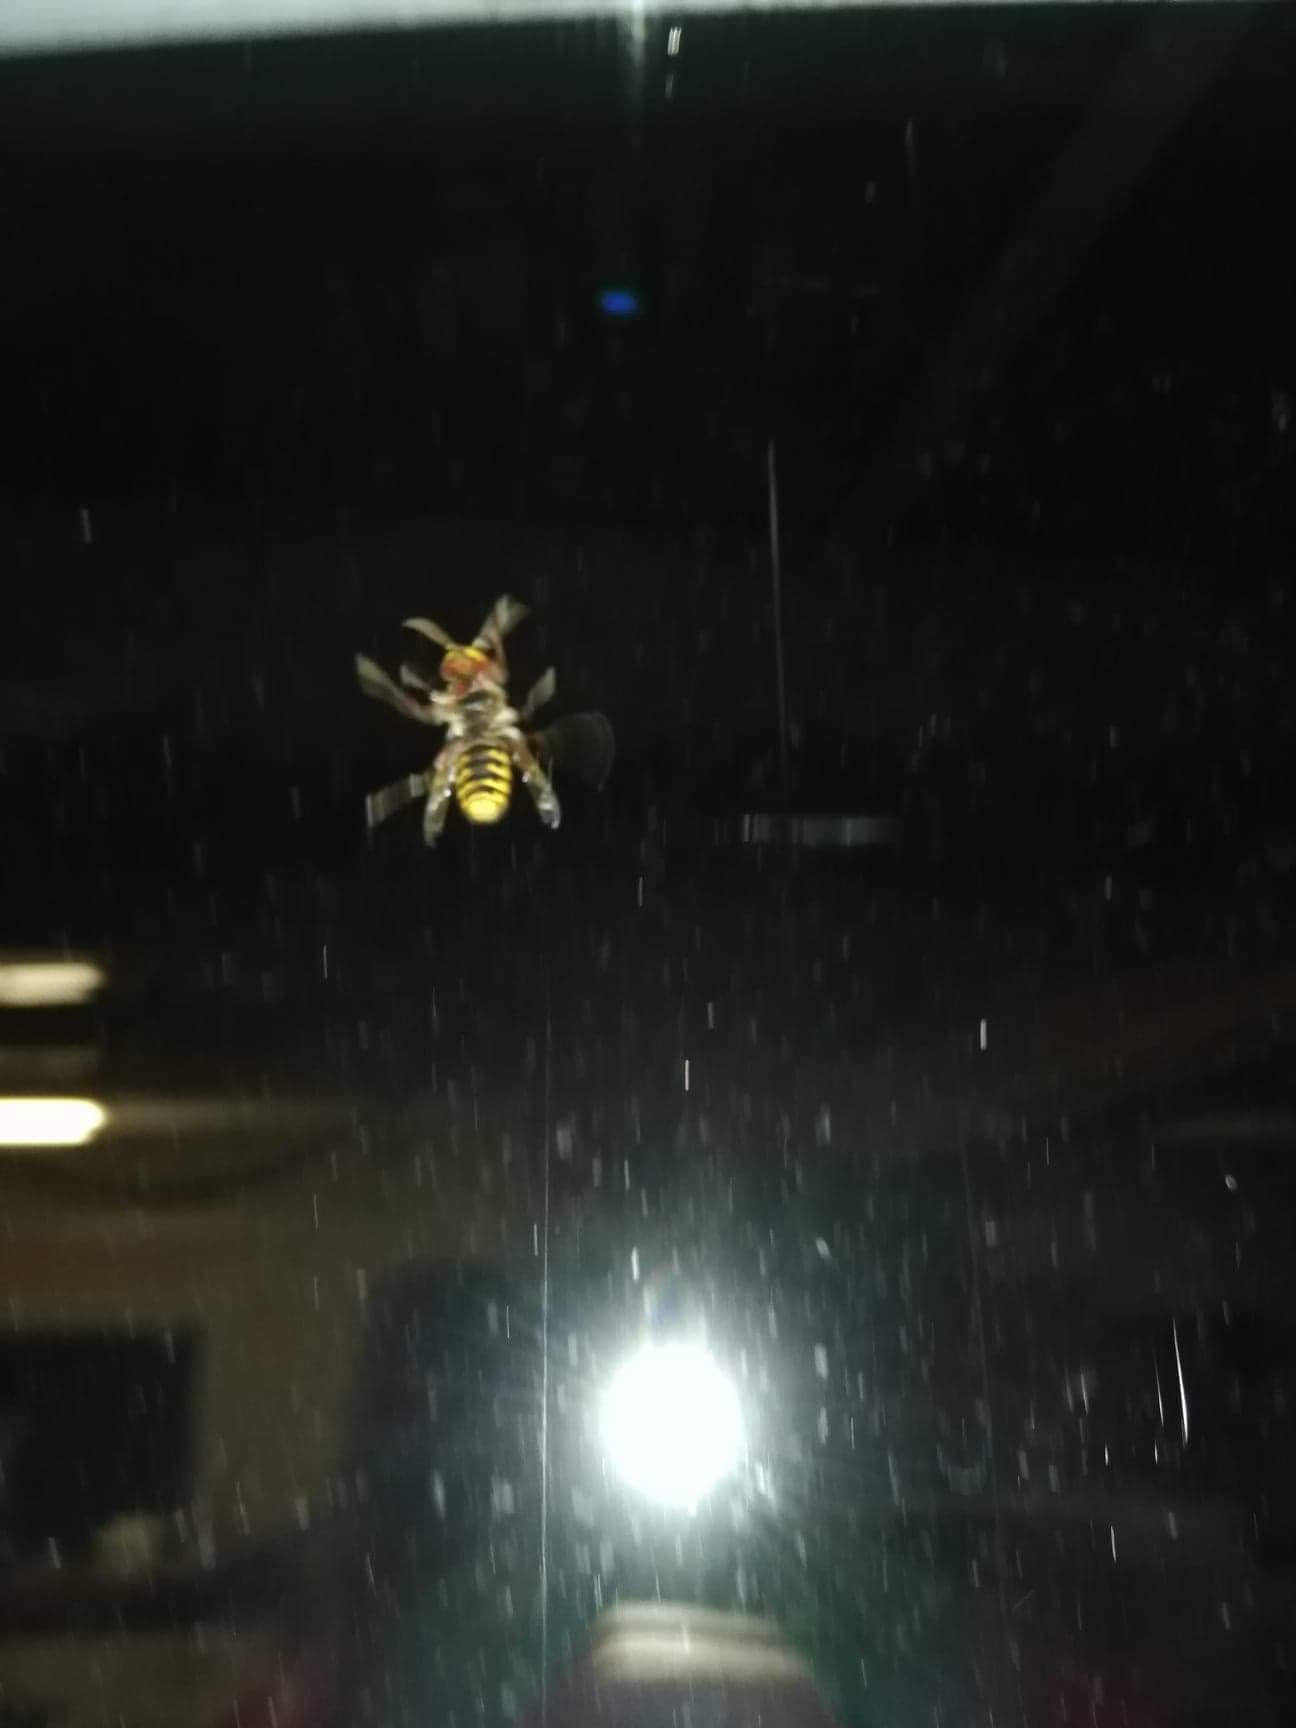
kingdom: Animalia
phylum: Arthropoda
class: Insecta
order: Hymenoptera
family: Vespidae
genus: Vespa
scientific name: Vespa crabro
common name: Hornet
